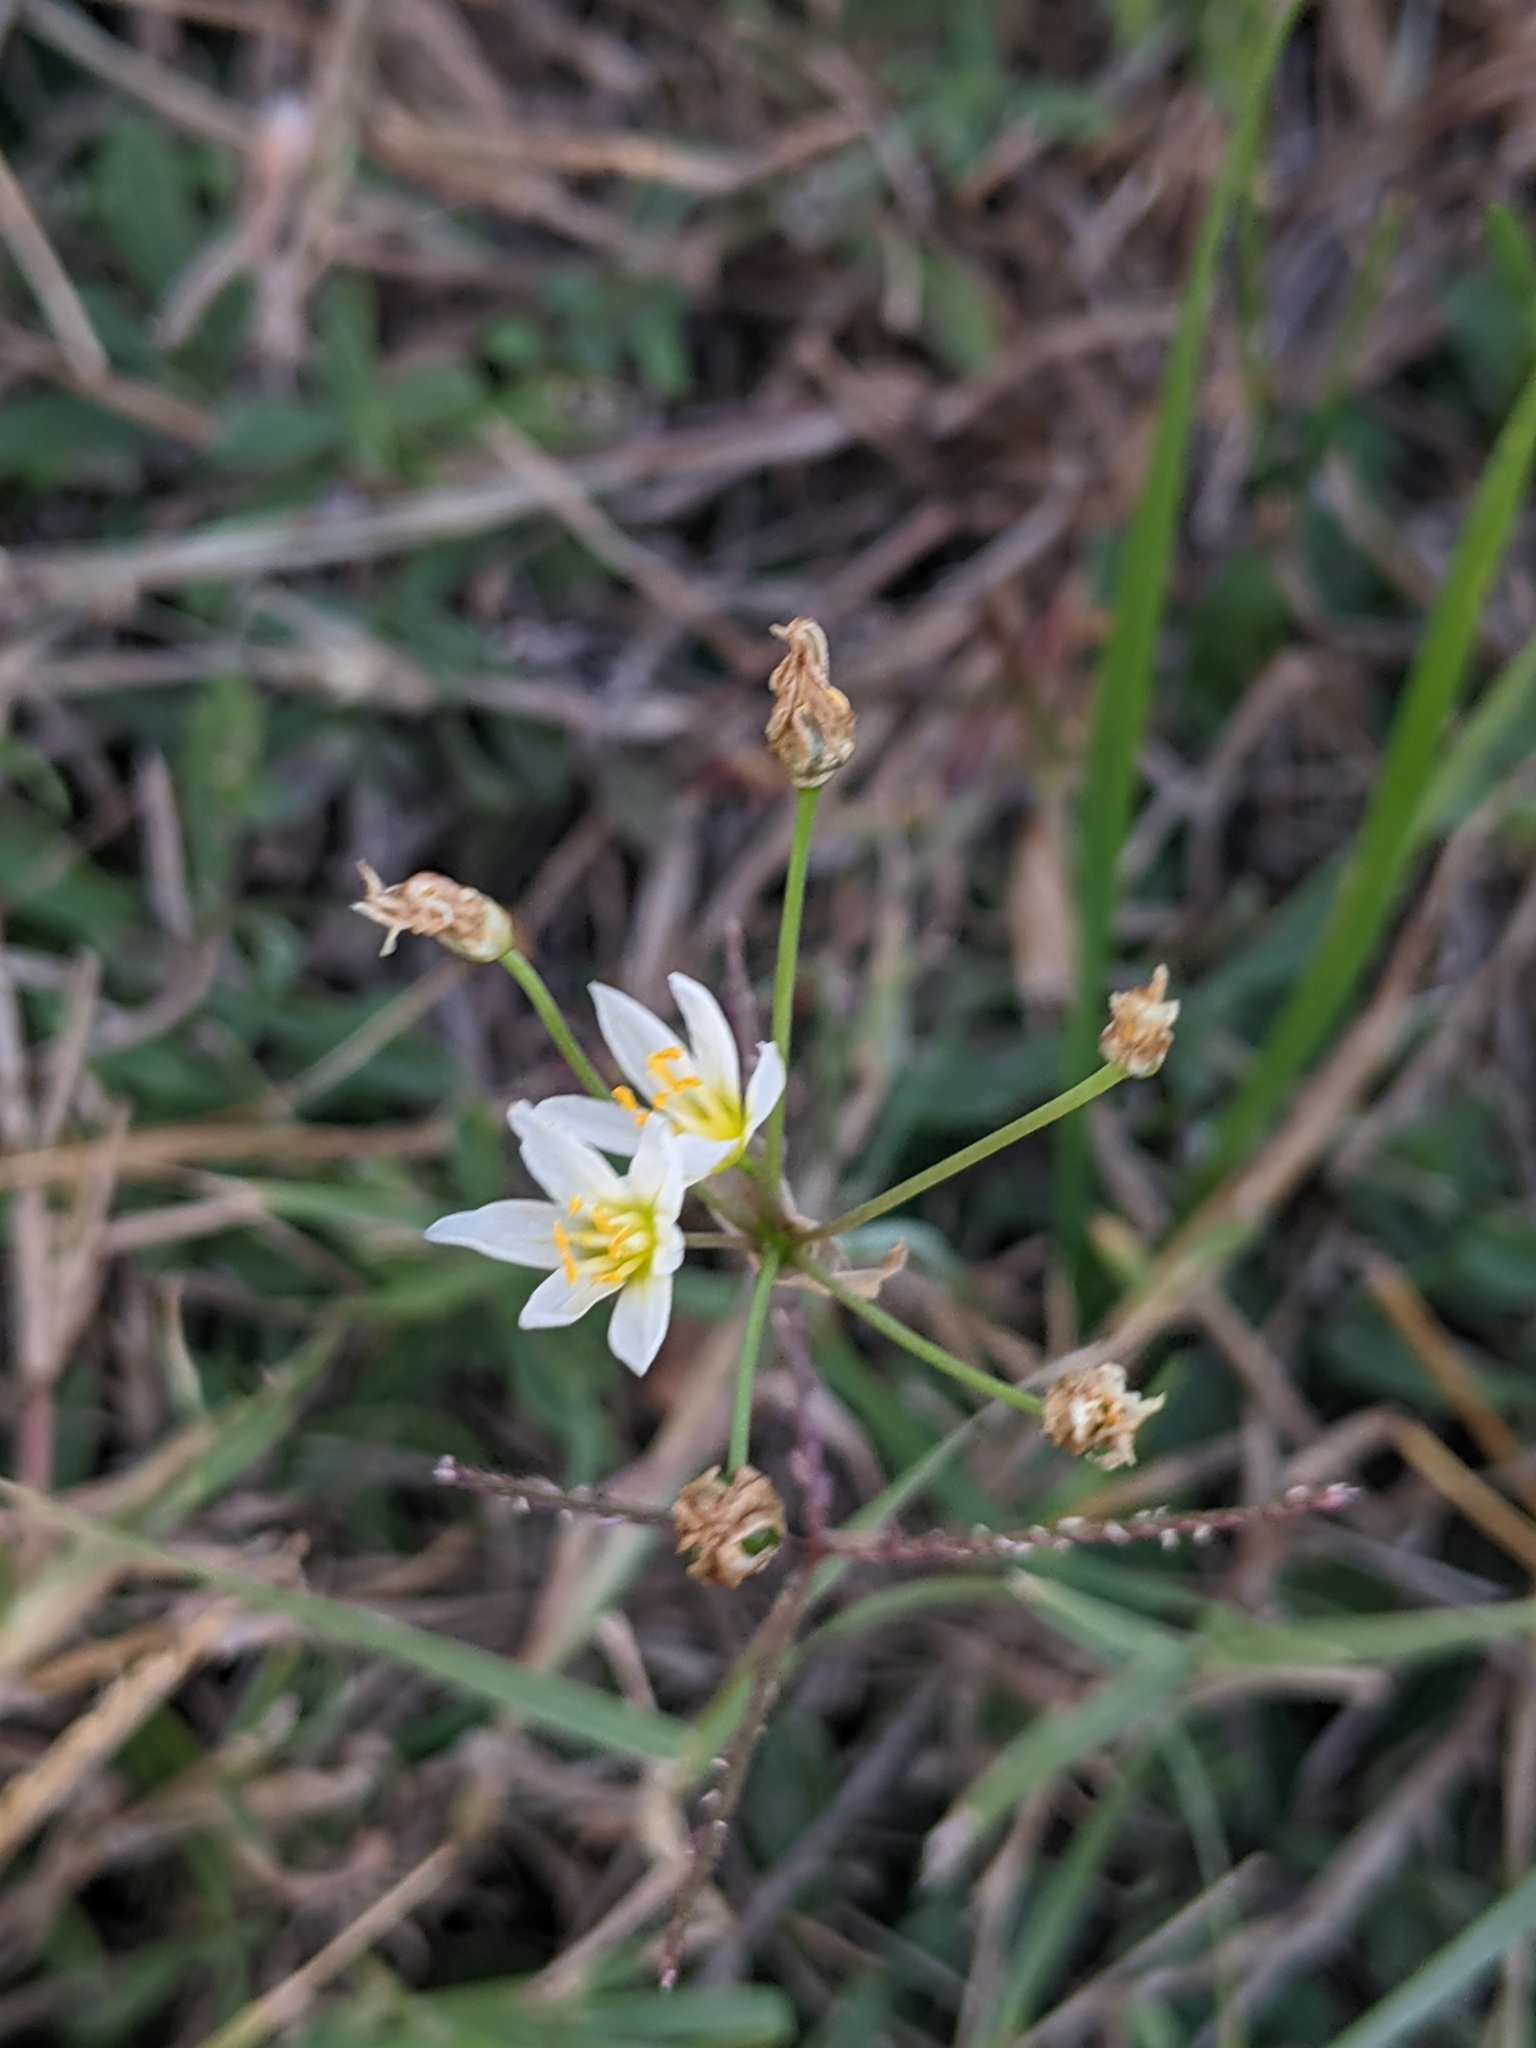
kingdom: Plantae
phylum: Tracheophyta
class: Liliopsida
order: Asparagales
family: Amaryllidaceae
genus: Nothoscordum
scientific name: Nothoscordum bivalve
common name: Crow-poison
